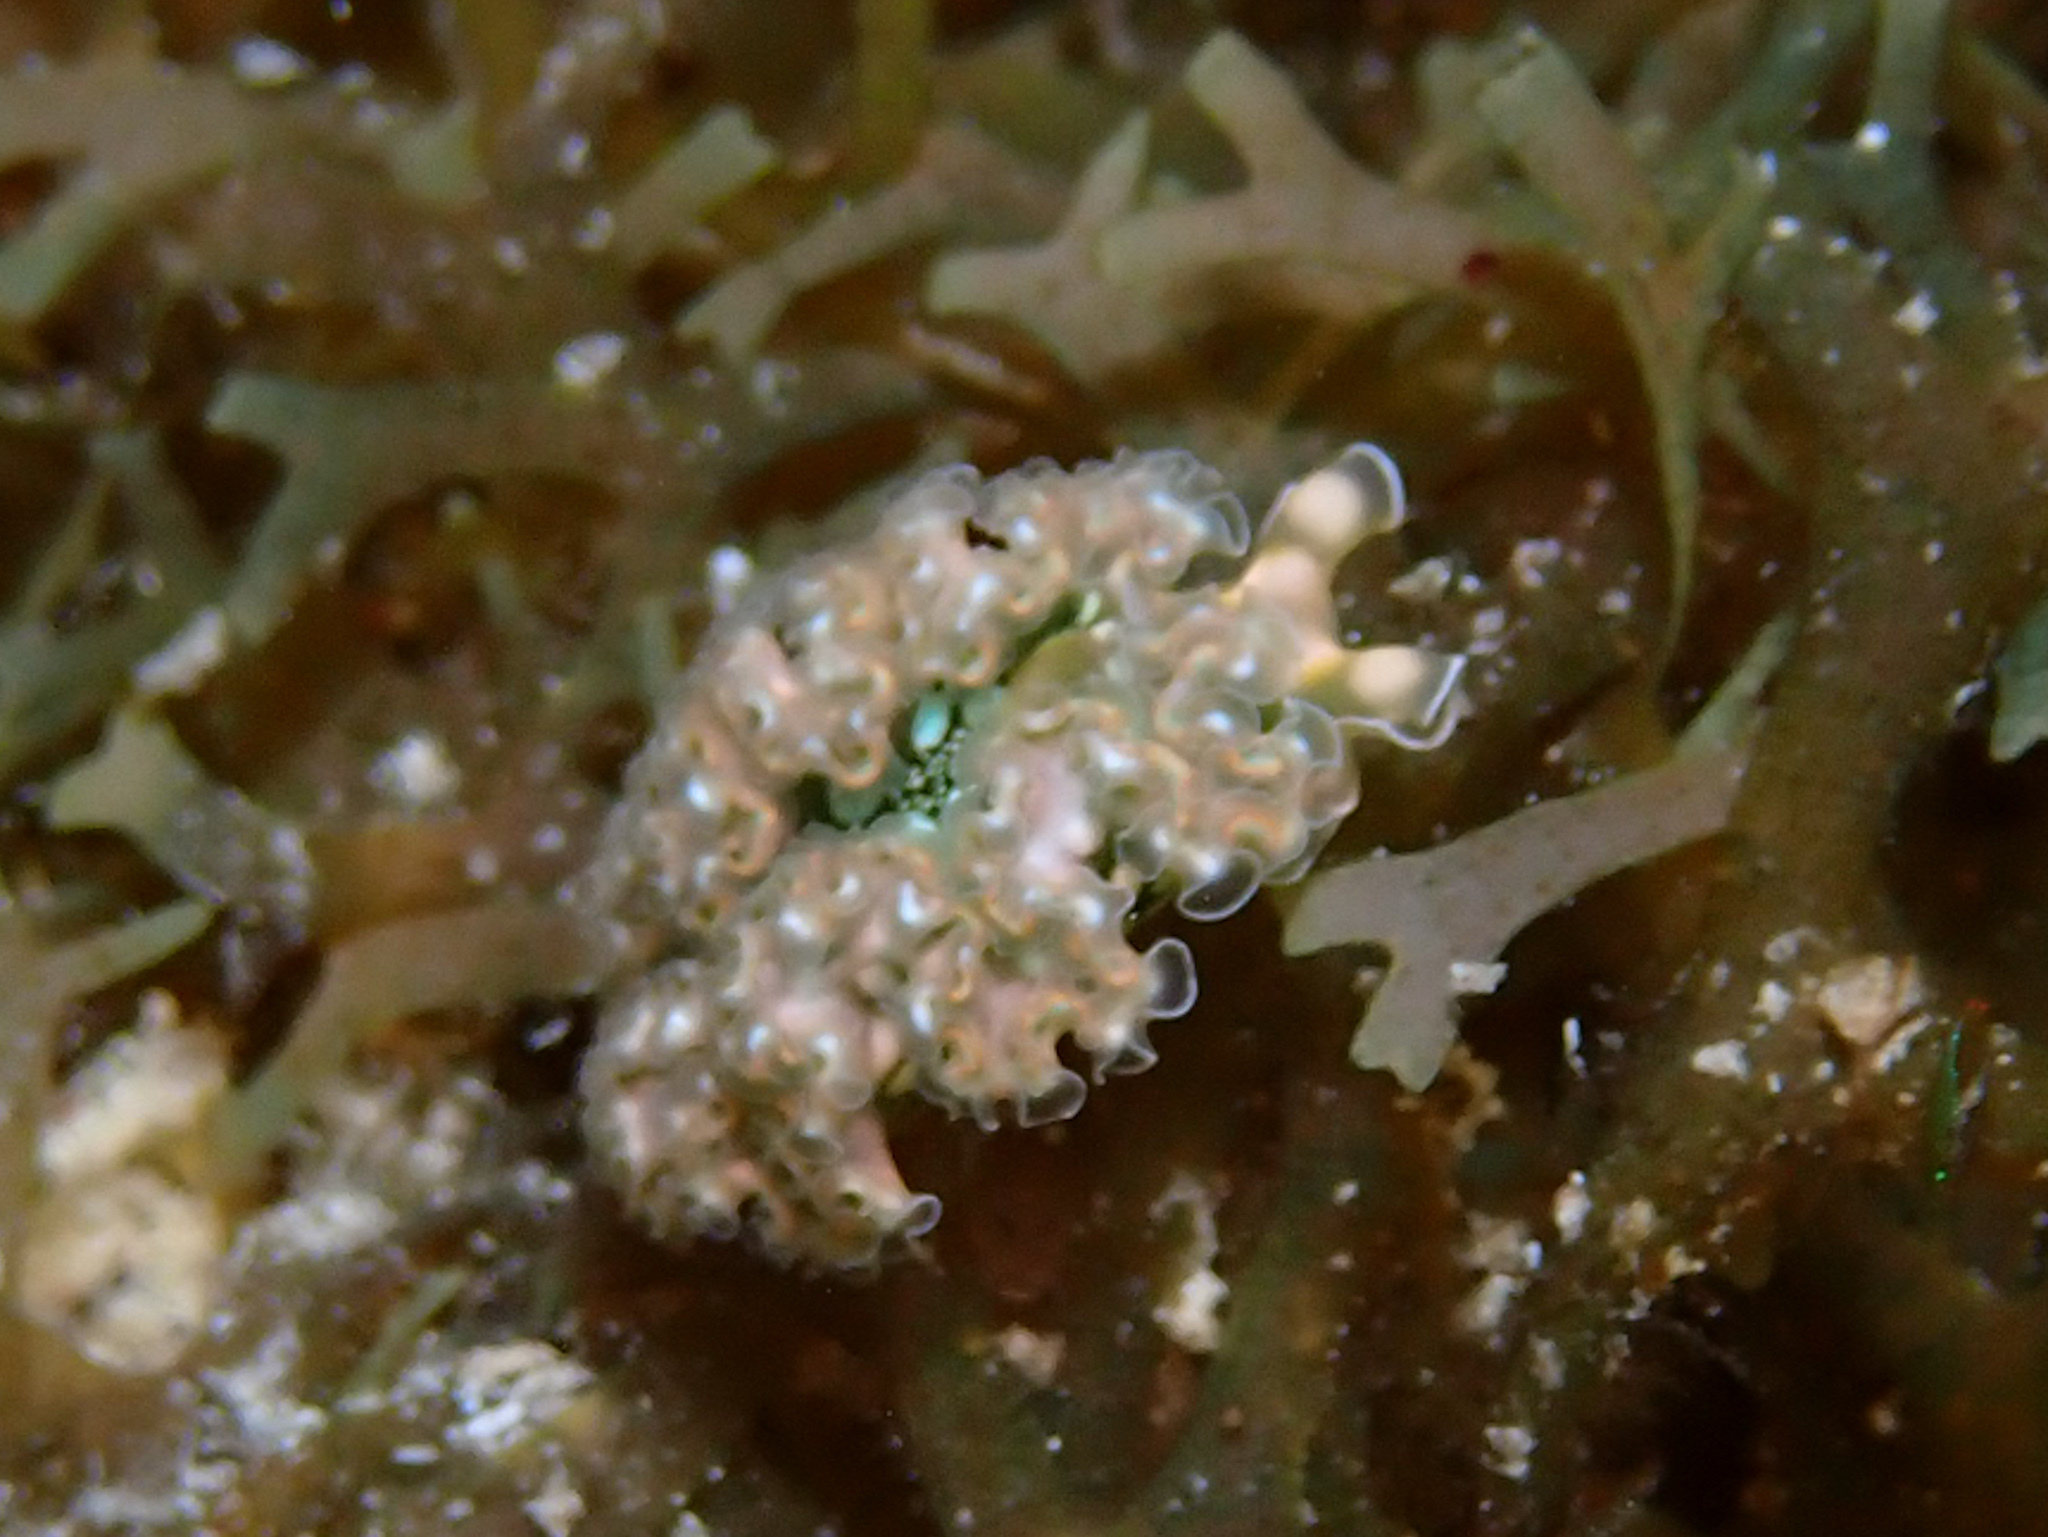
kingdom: Animalia
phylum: Mollusca
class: Gastropoda
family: Plakobranchidae
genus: Elysia
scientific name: Elysia crispata
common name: Lettuce slug
